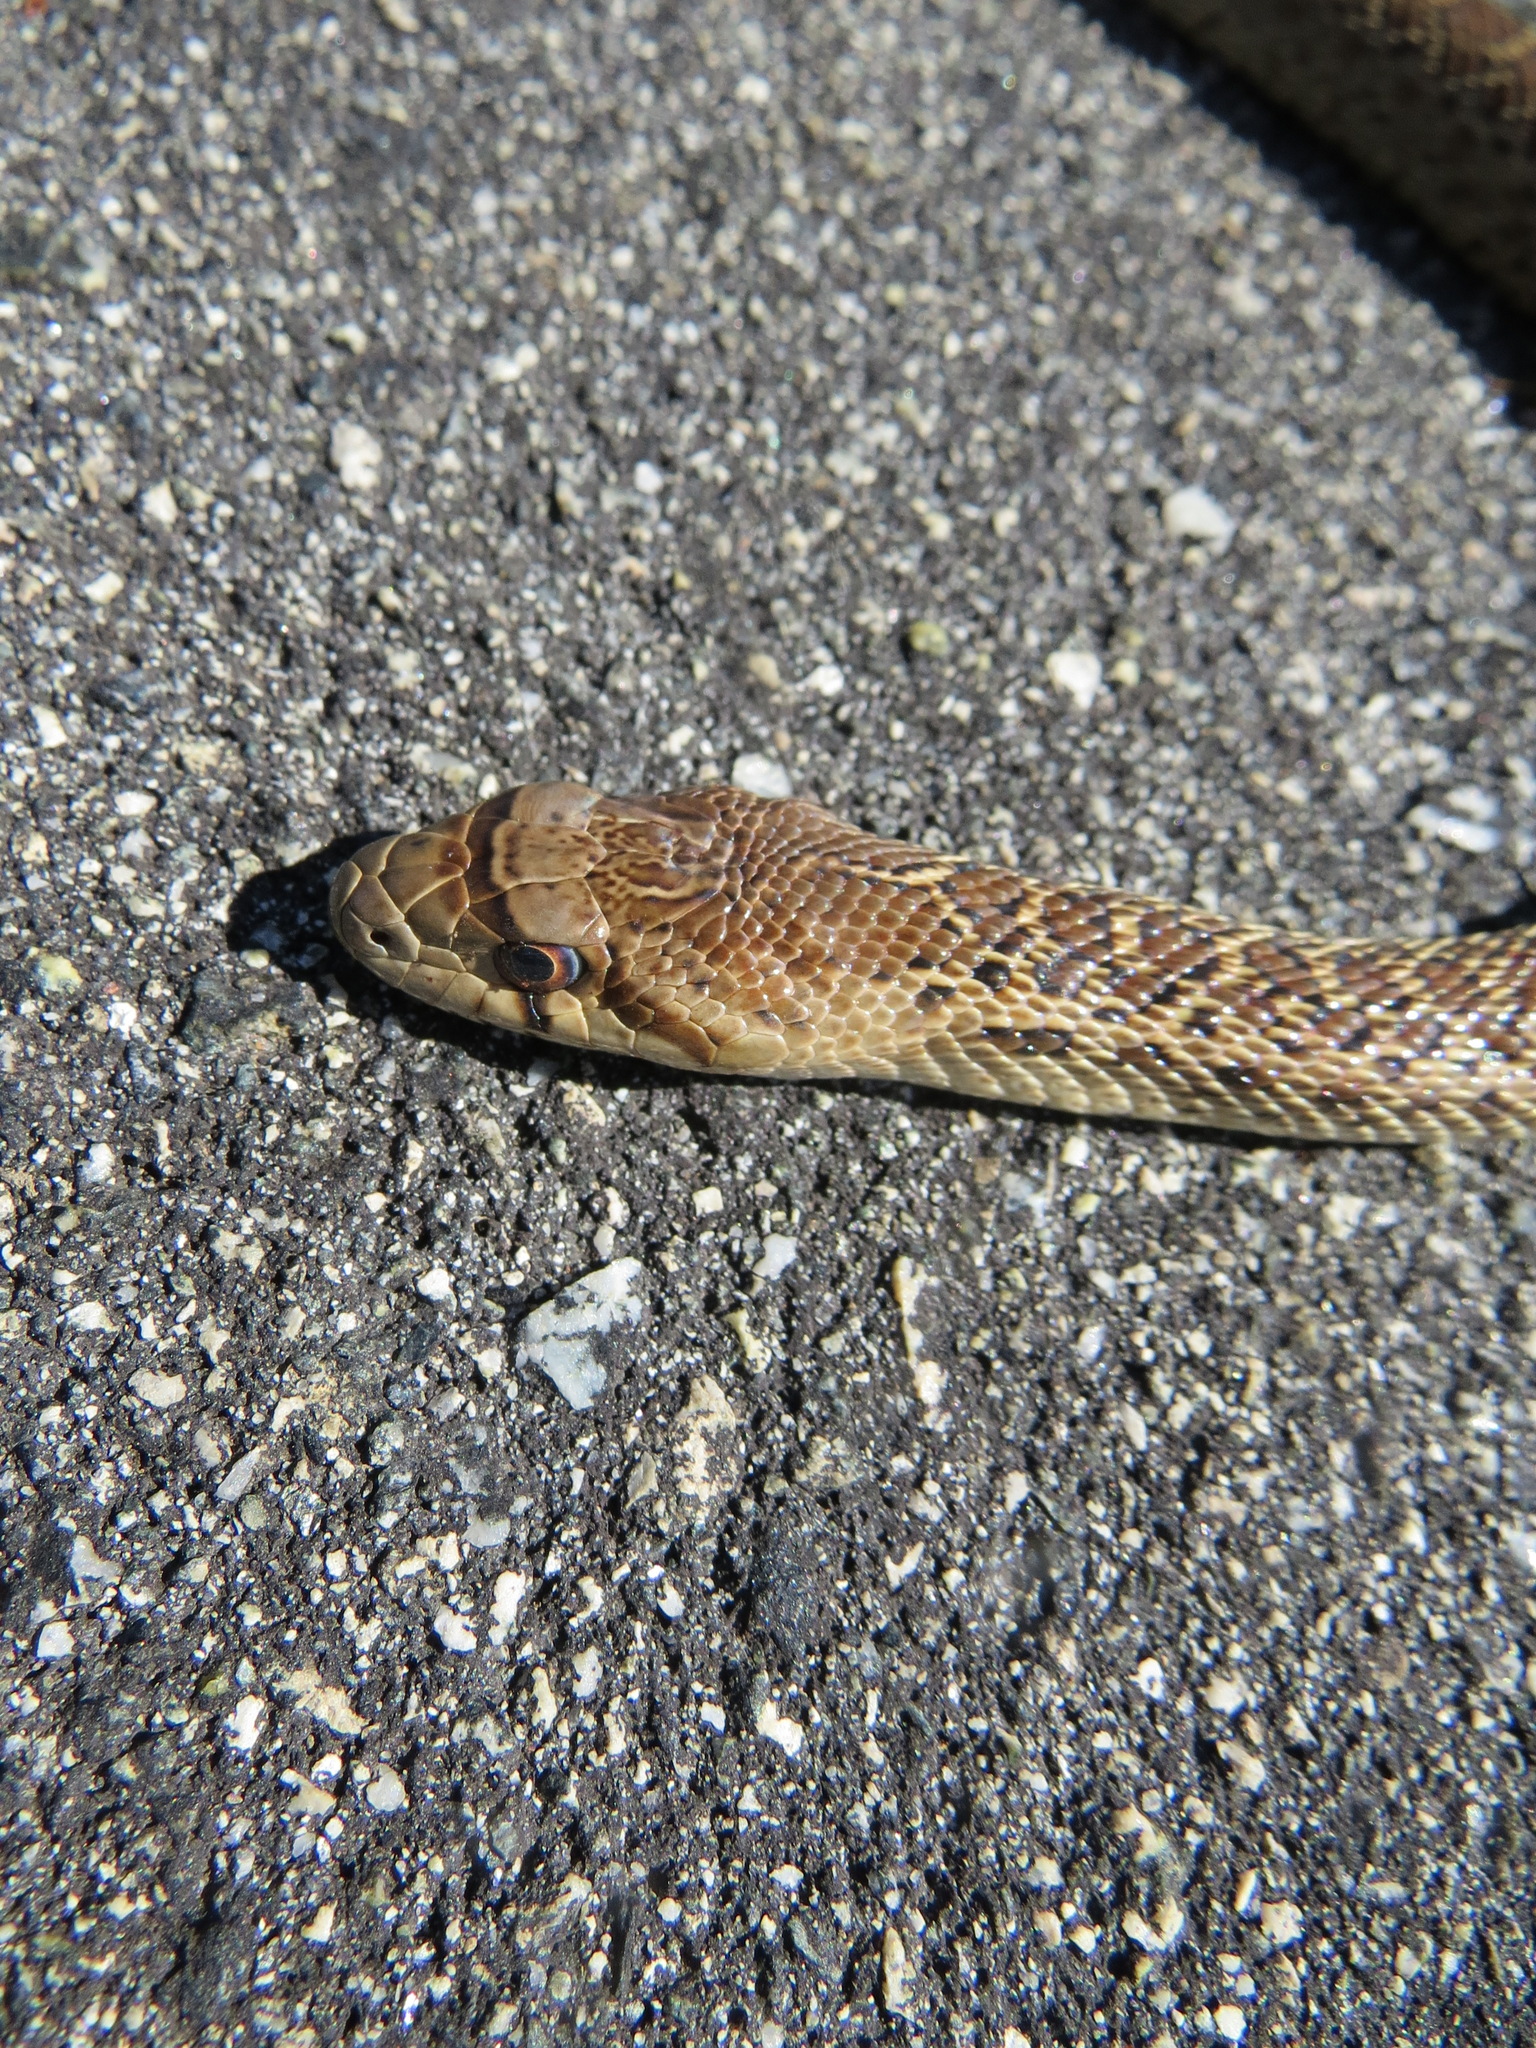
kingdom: Animalia
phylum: Chordata
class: Squamata
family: Colubridae
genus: Pituophis
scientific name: Pituophis catenifer
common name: Gopher snake
